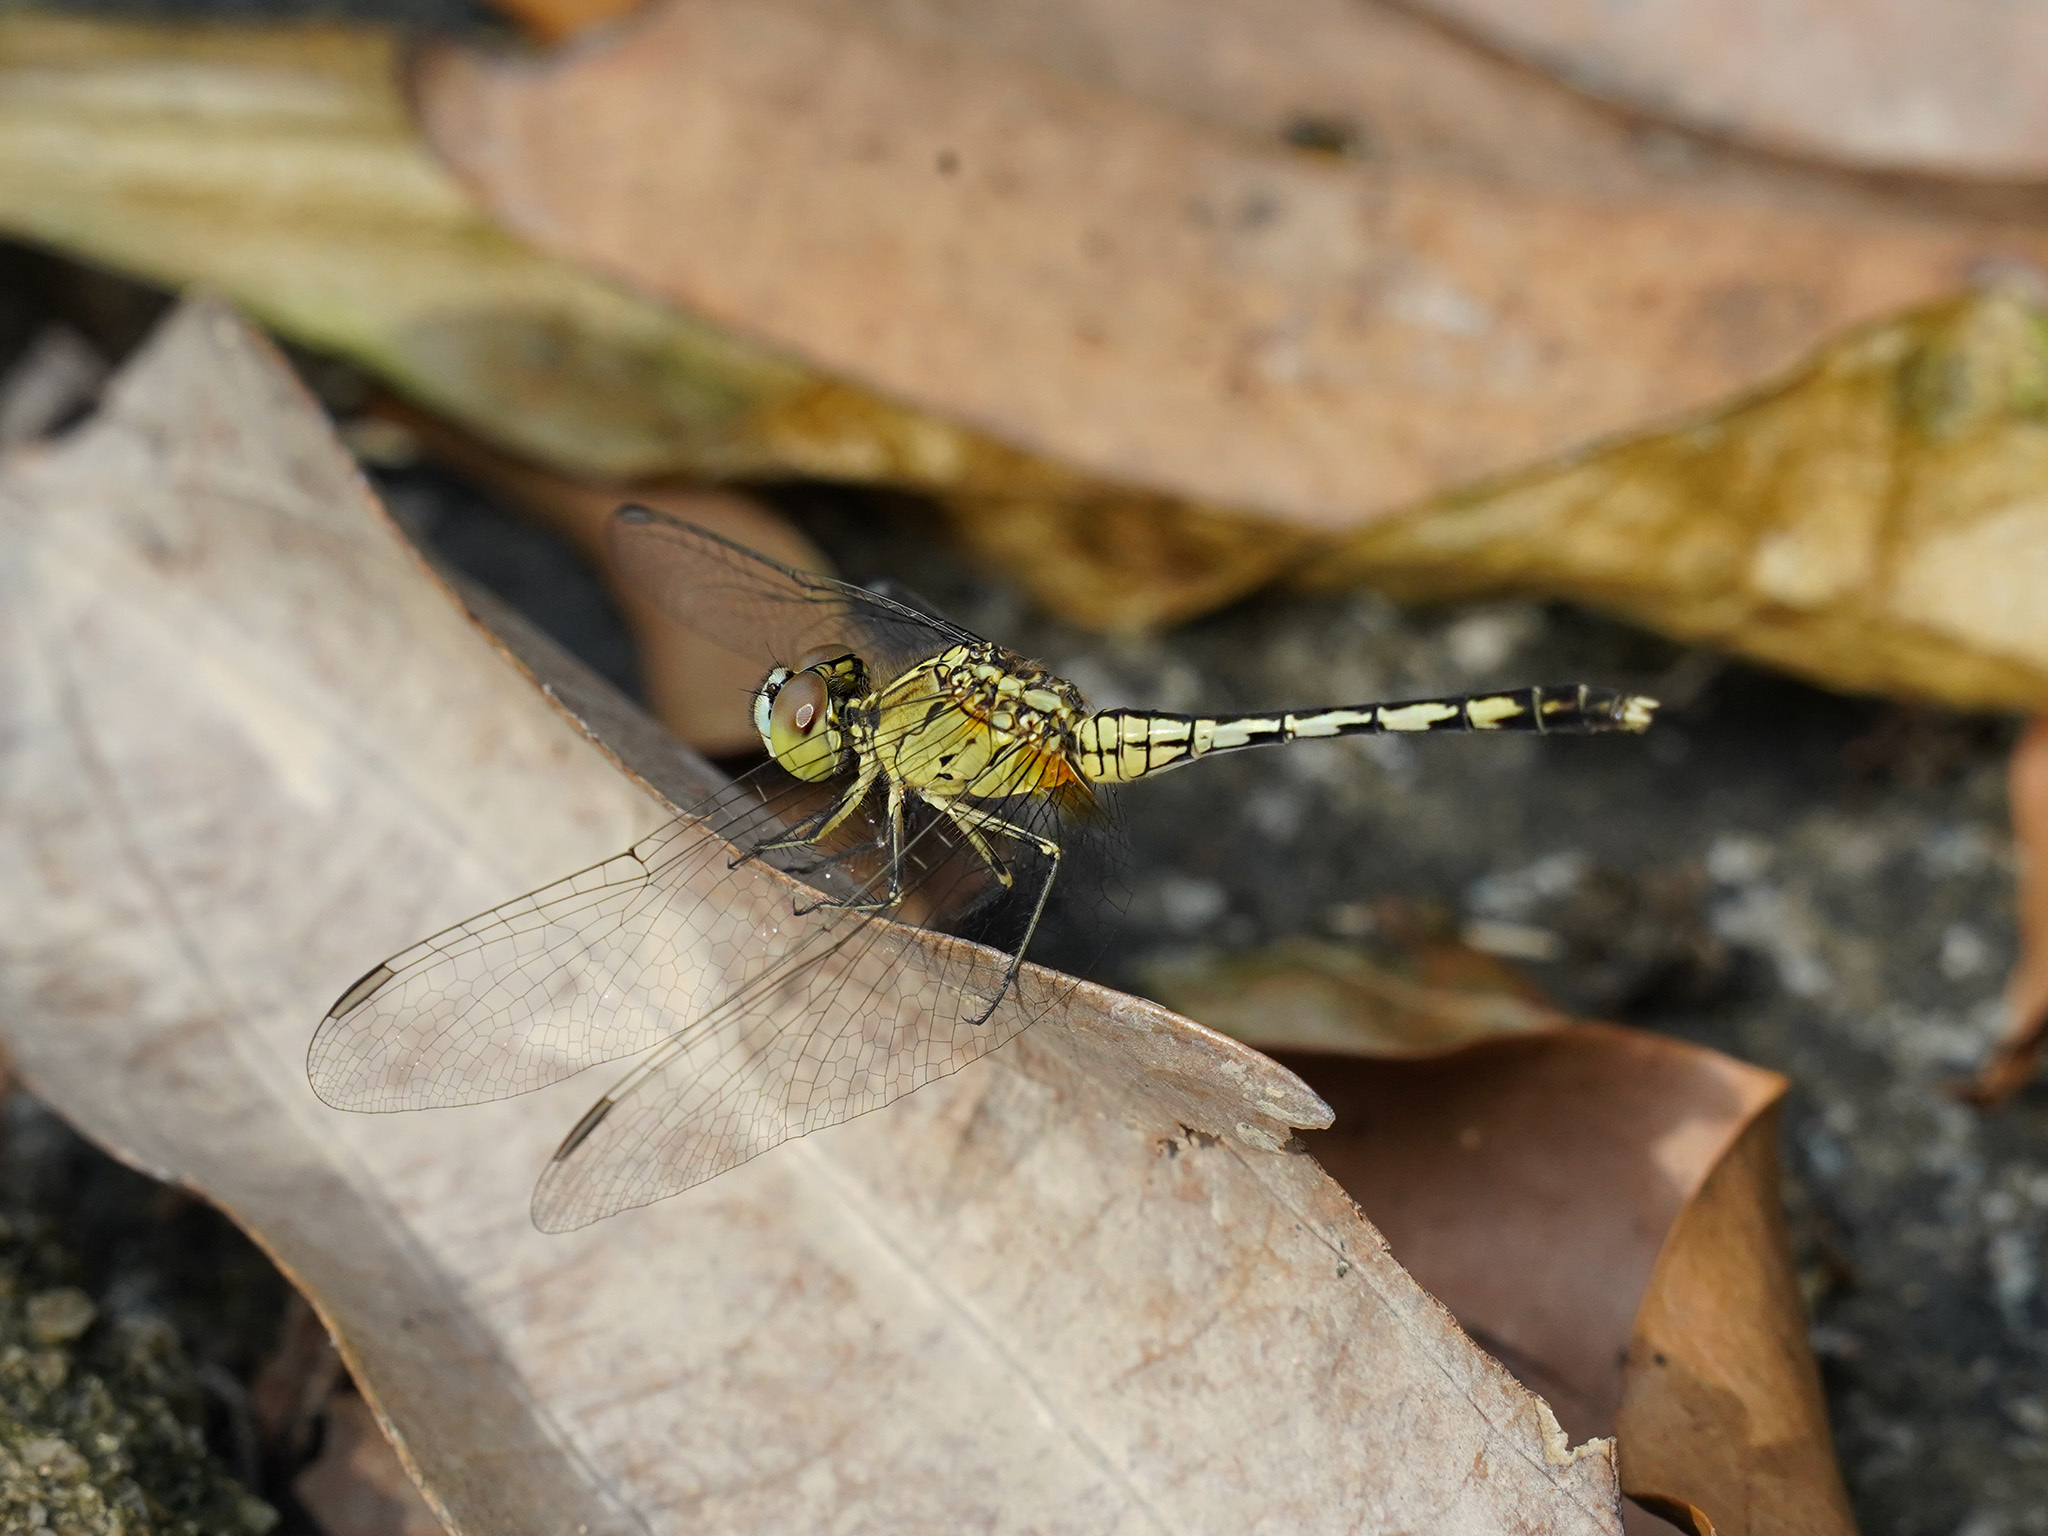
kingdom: Animalia
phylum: Arthropoda
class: Insecta
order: Odonata
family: Libellulidae
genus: Diplacodes
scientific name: Diplacodes trivialis
